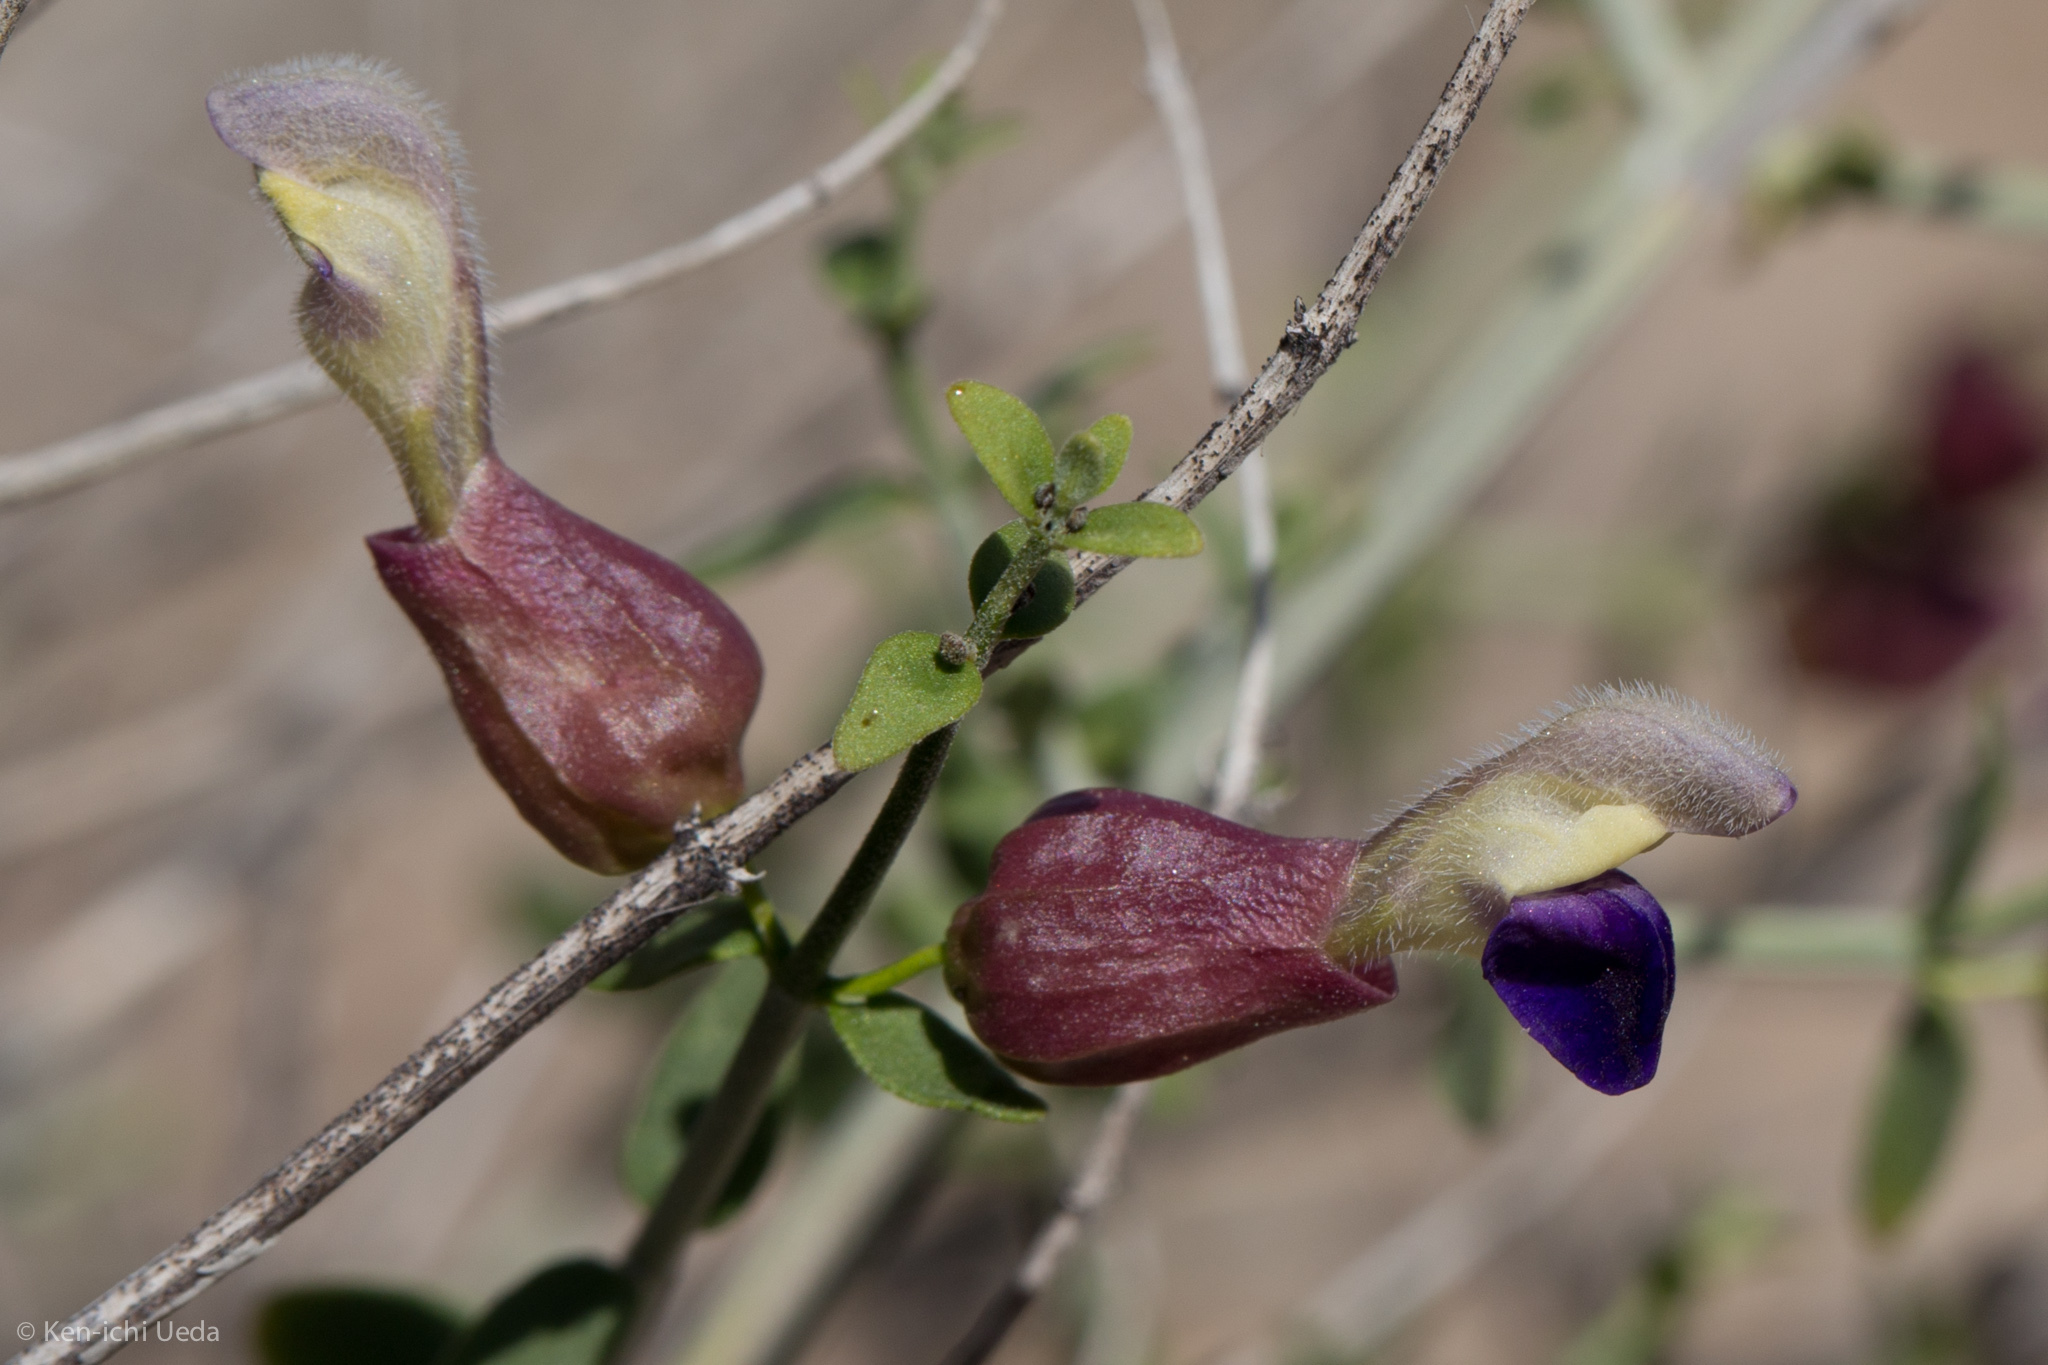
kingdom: Plantae
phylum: Tracheophyta
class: Magnoliopsida
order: Lamiales
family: Lamiaceae
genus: Scutellaria
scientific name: Scutellaria mexicana
